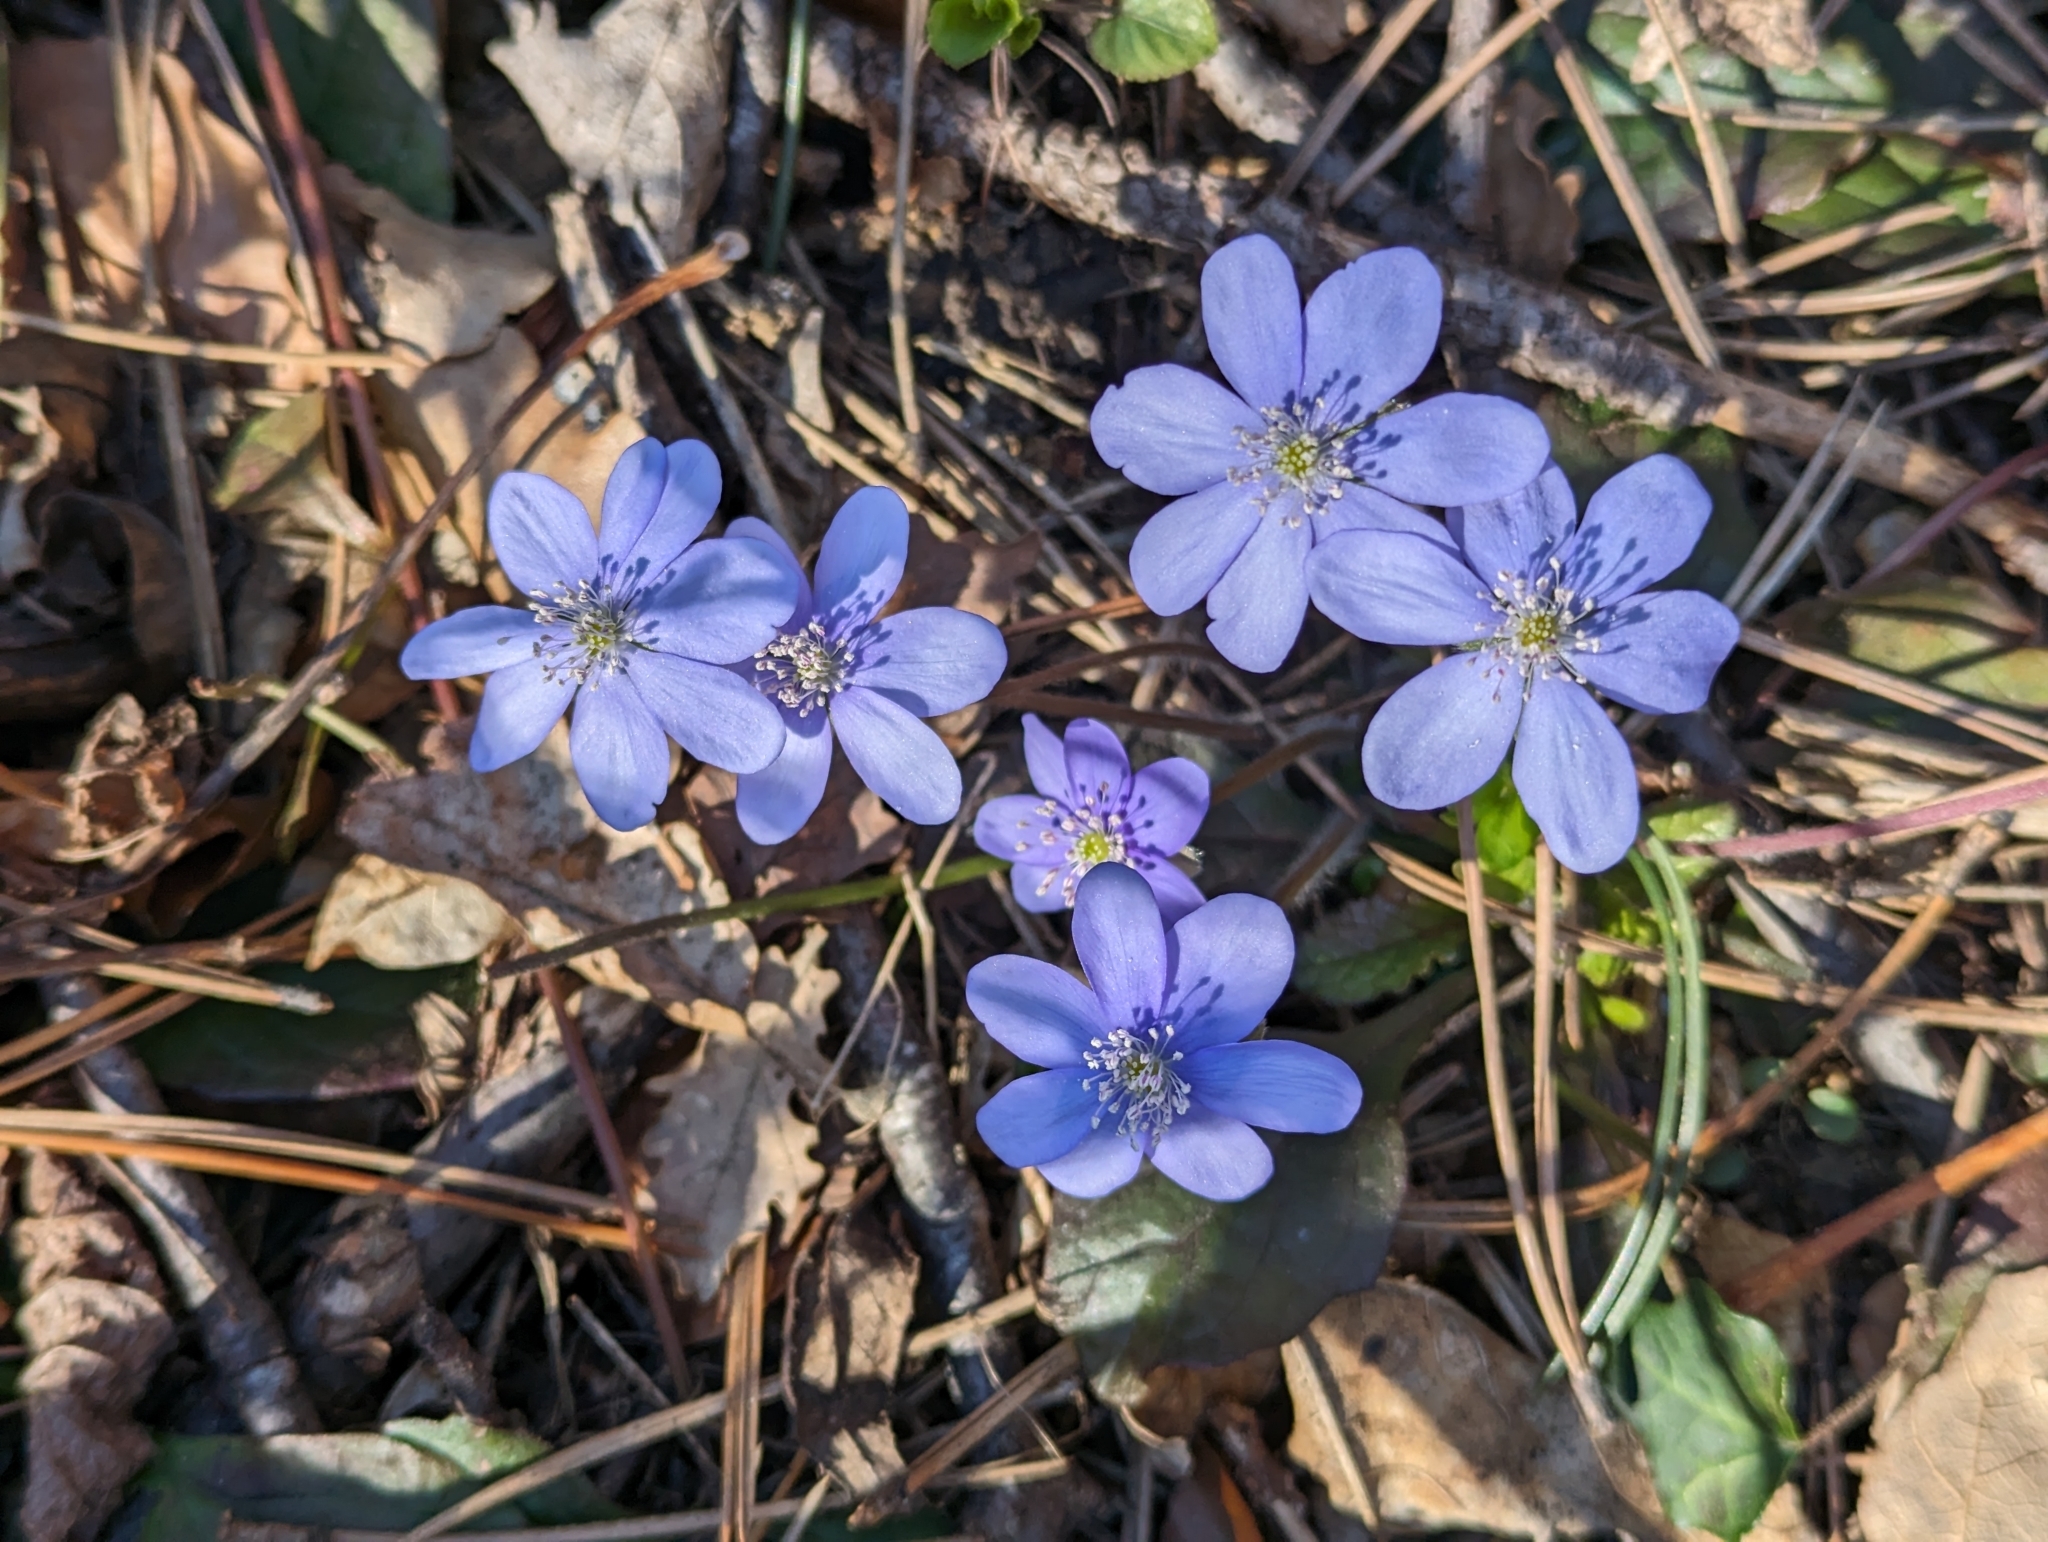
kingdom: Plantae
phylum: Tracheophyta
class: Magnoliopsida
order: Ranunculales
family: Ranunculaceae
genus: Hepatica
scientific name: Hepatica nobilis
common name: Liverleaf
